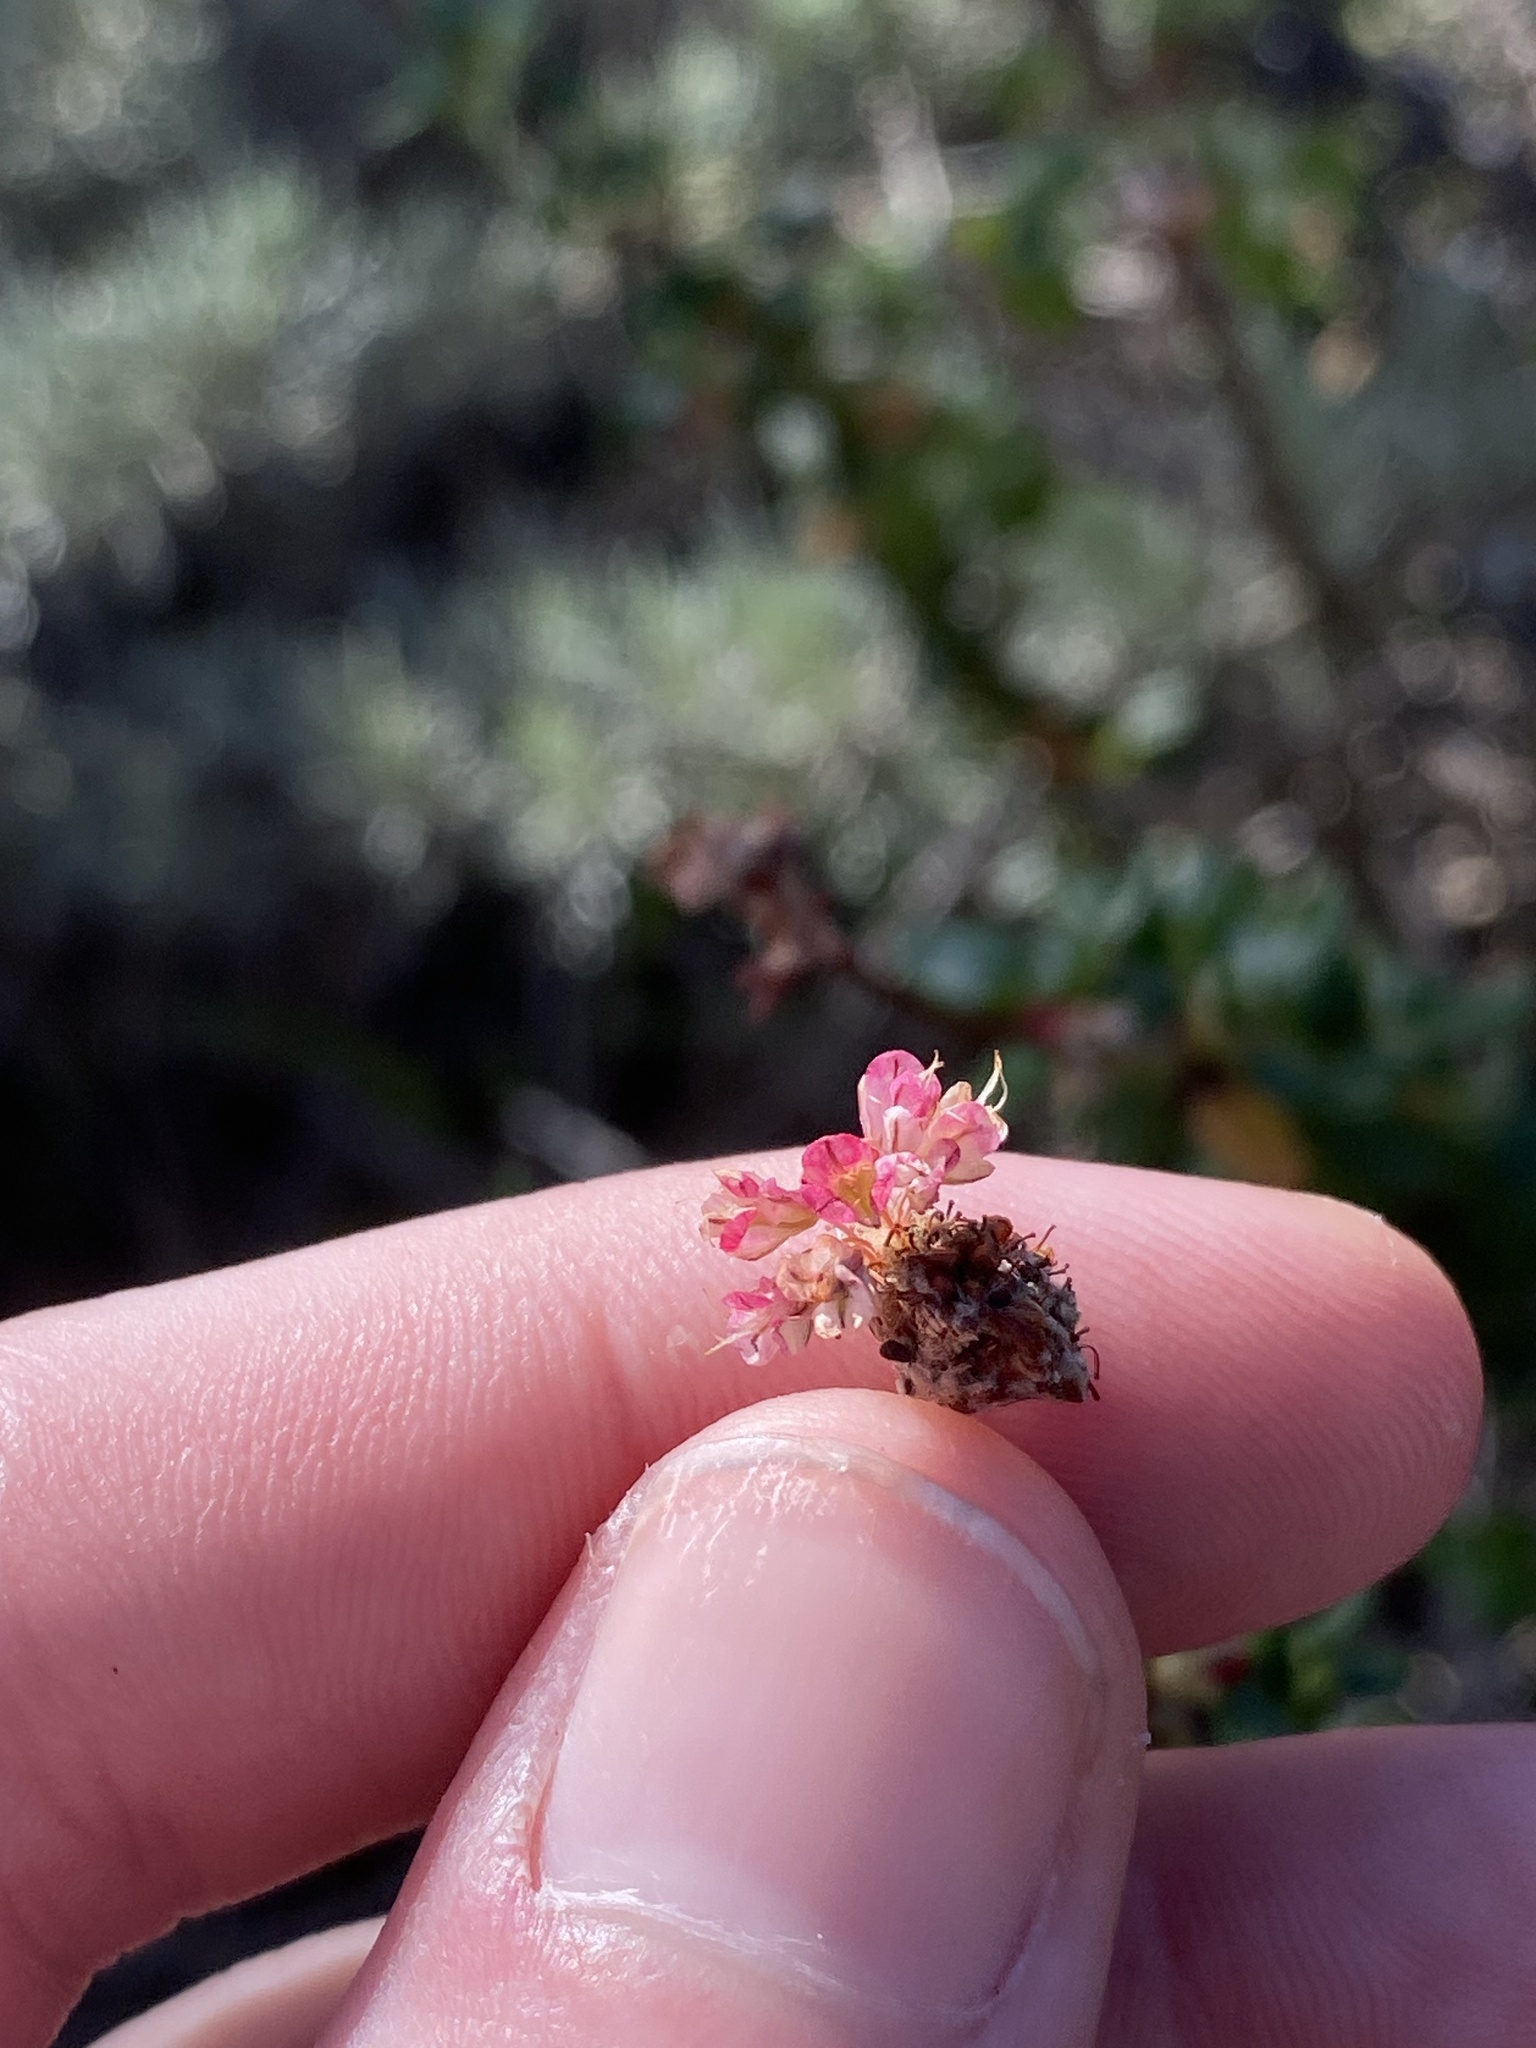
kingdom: Plantae
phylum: Tracheophyta
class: Magnoliopsida
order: Caryophyllales
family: Polygonaceae
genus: Eriogonum
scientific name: Eriogonum parvifolium
